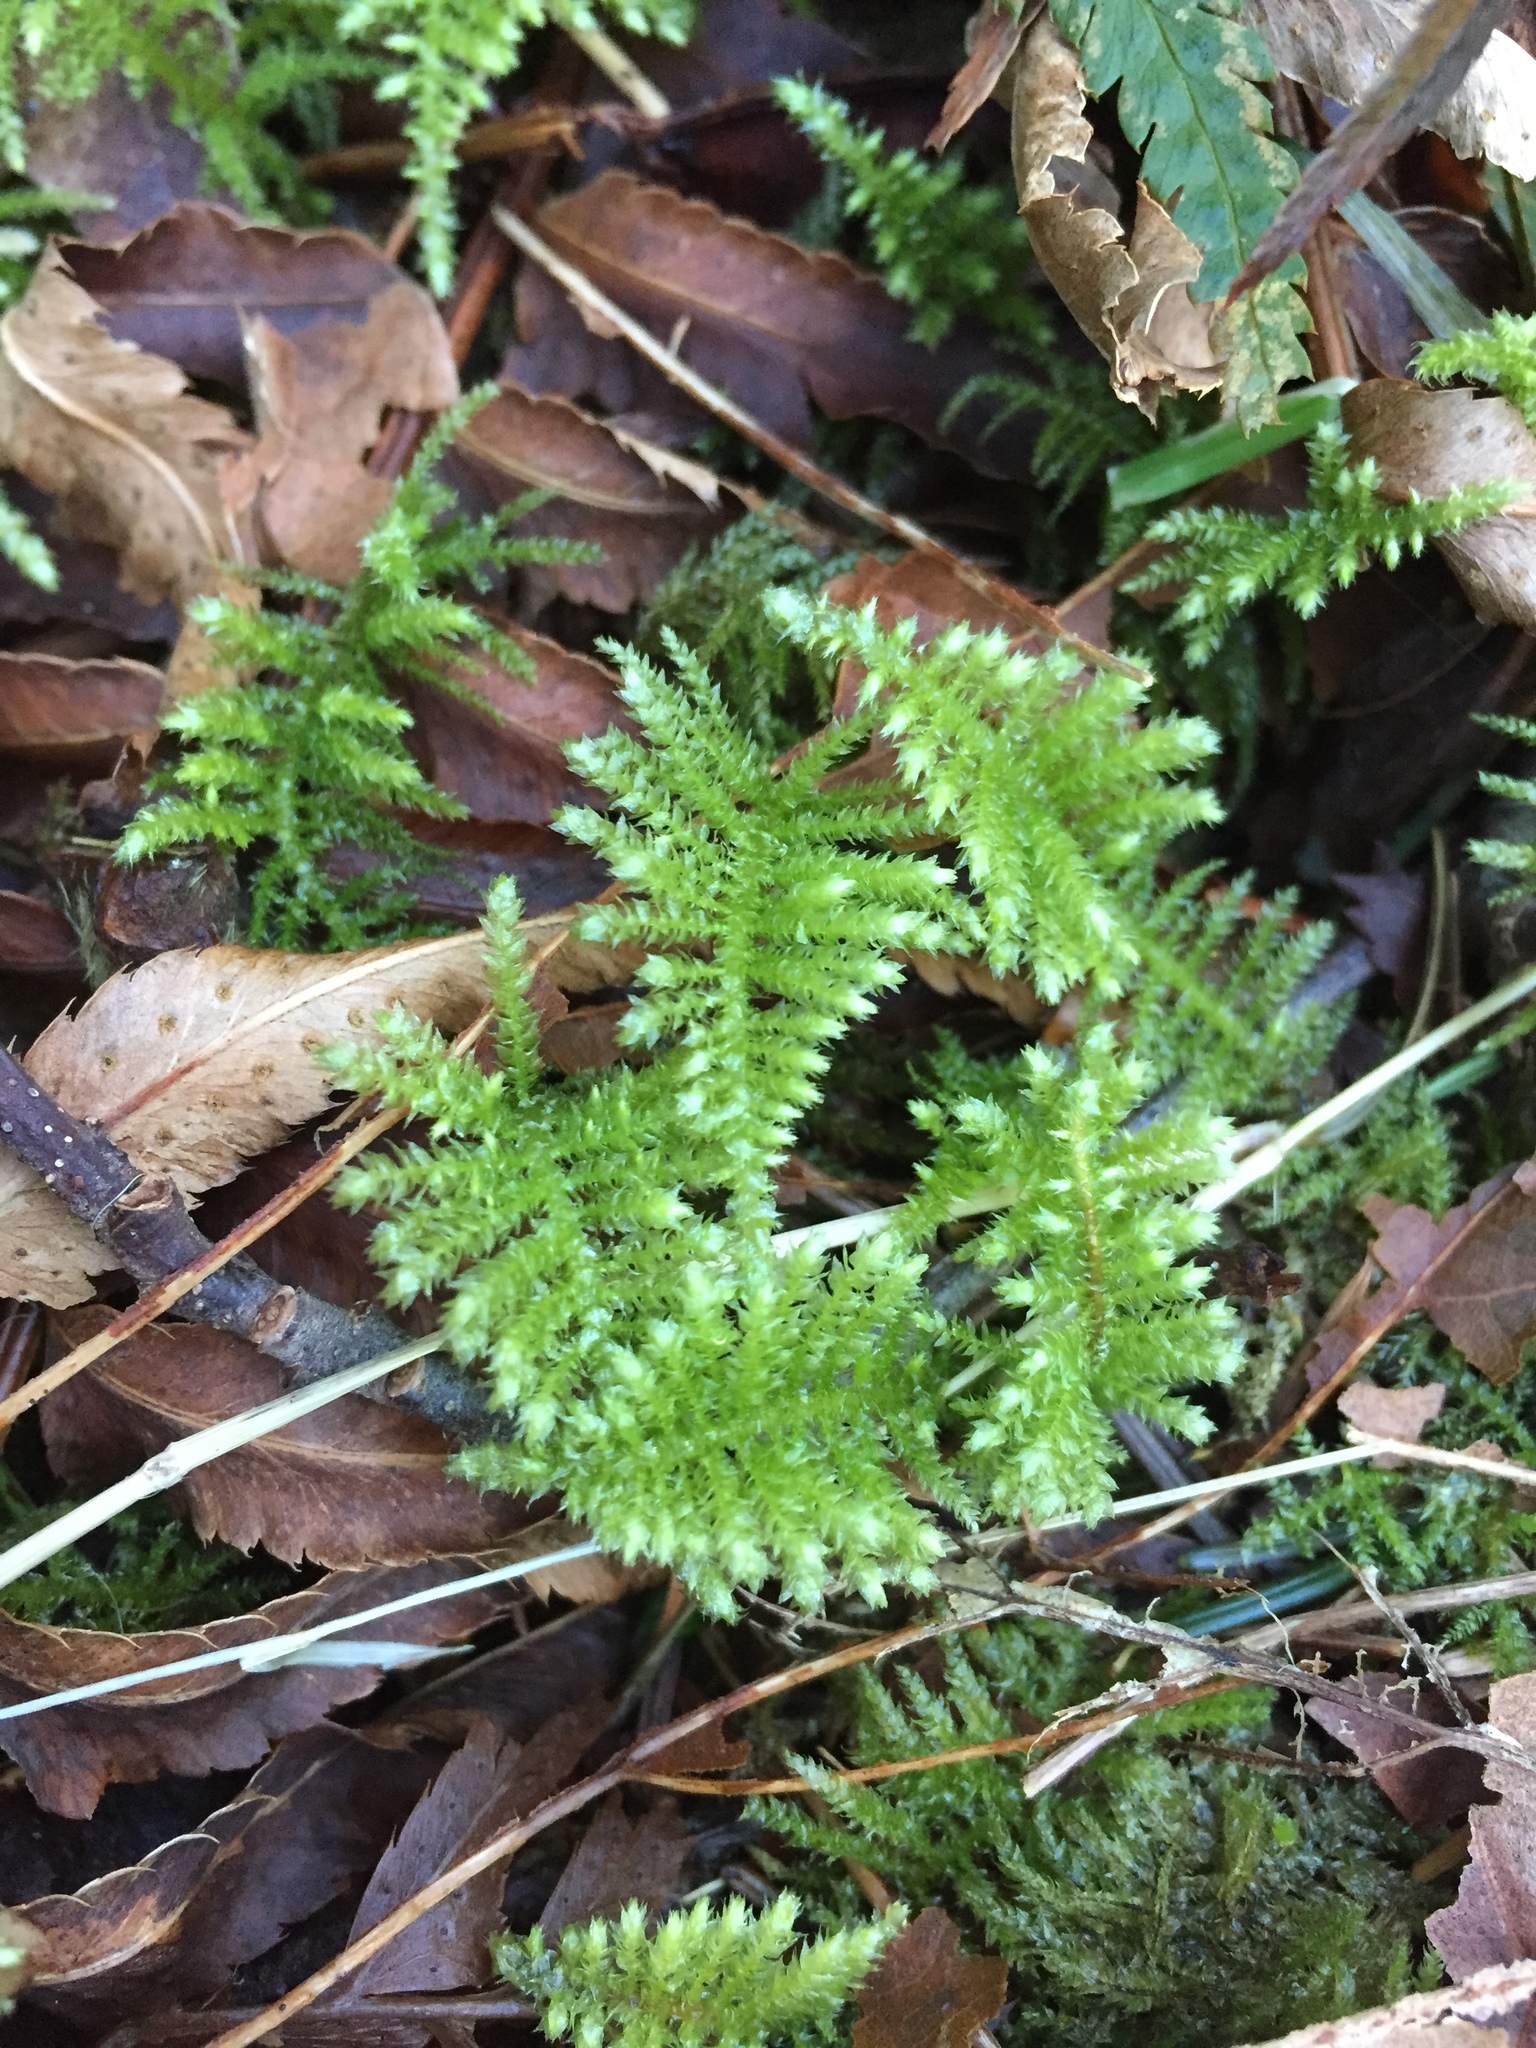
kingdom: Plantae
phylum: Bryophyta
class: Bryopsida
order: Hypnales
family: Brachytheciaceae
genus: Kindbergia
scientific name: Kindbergia oregana
